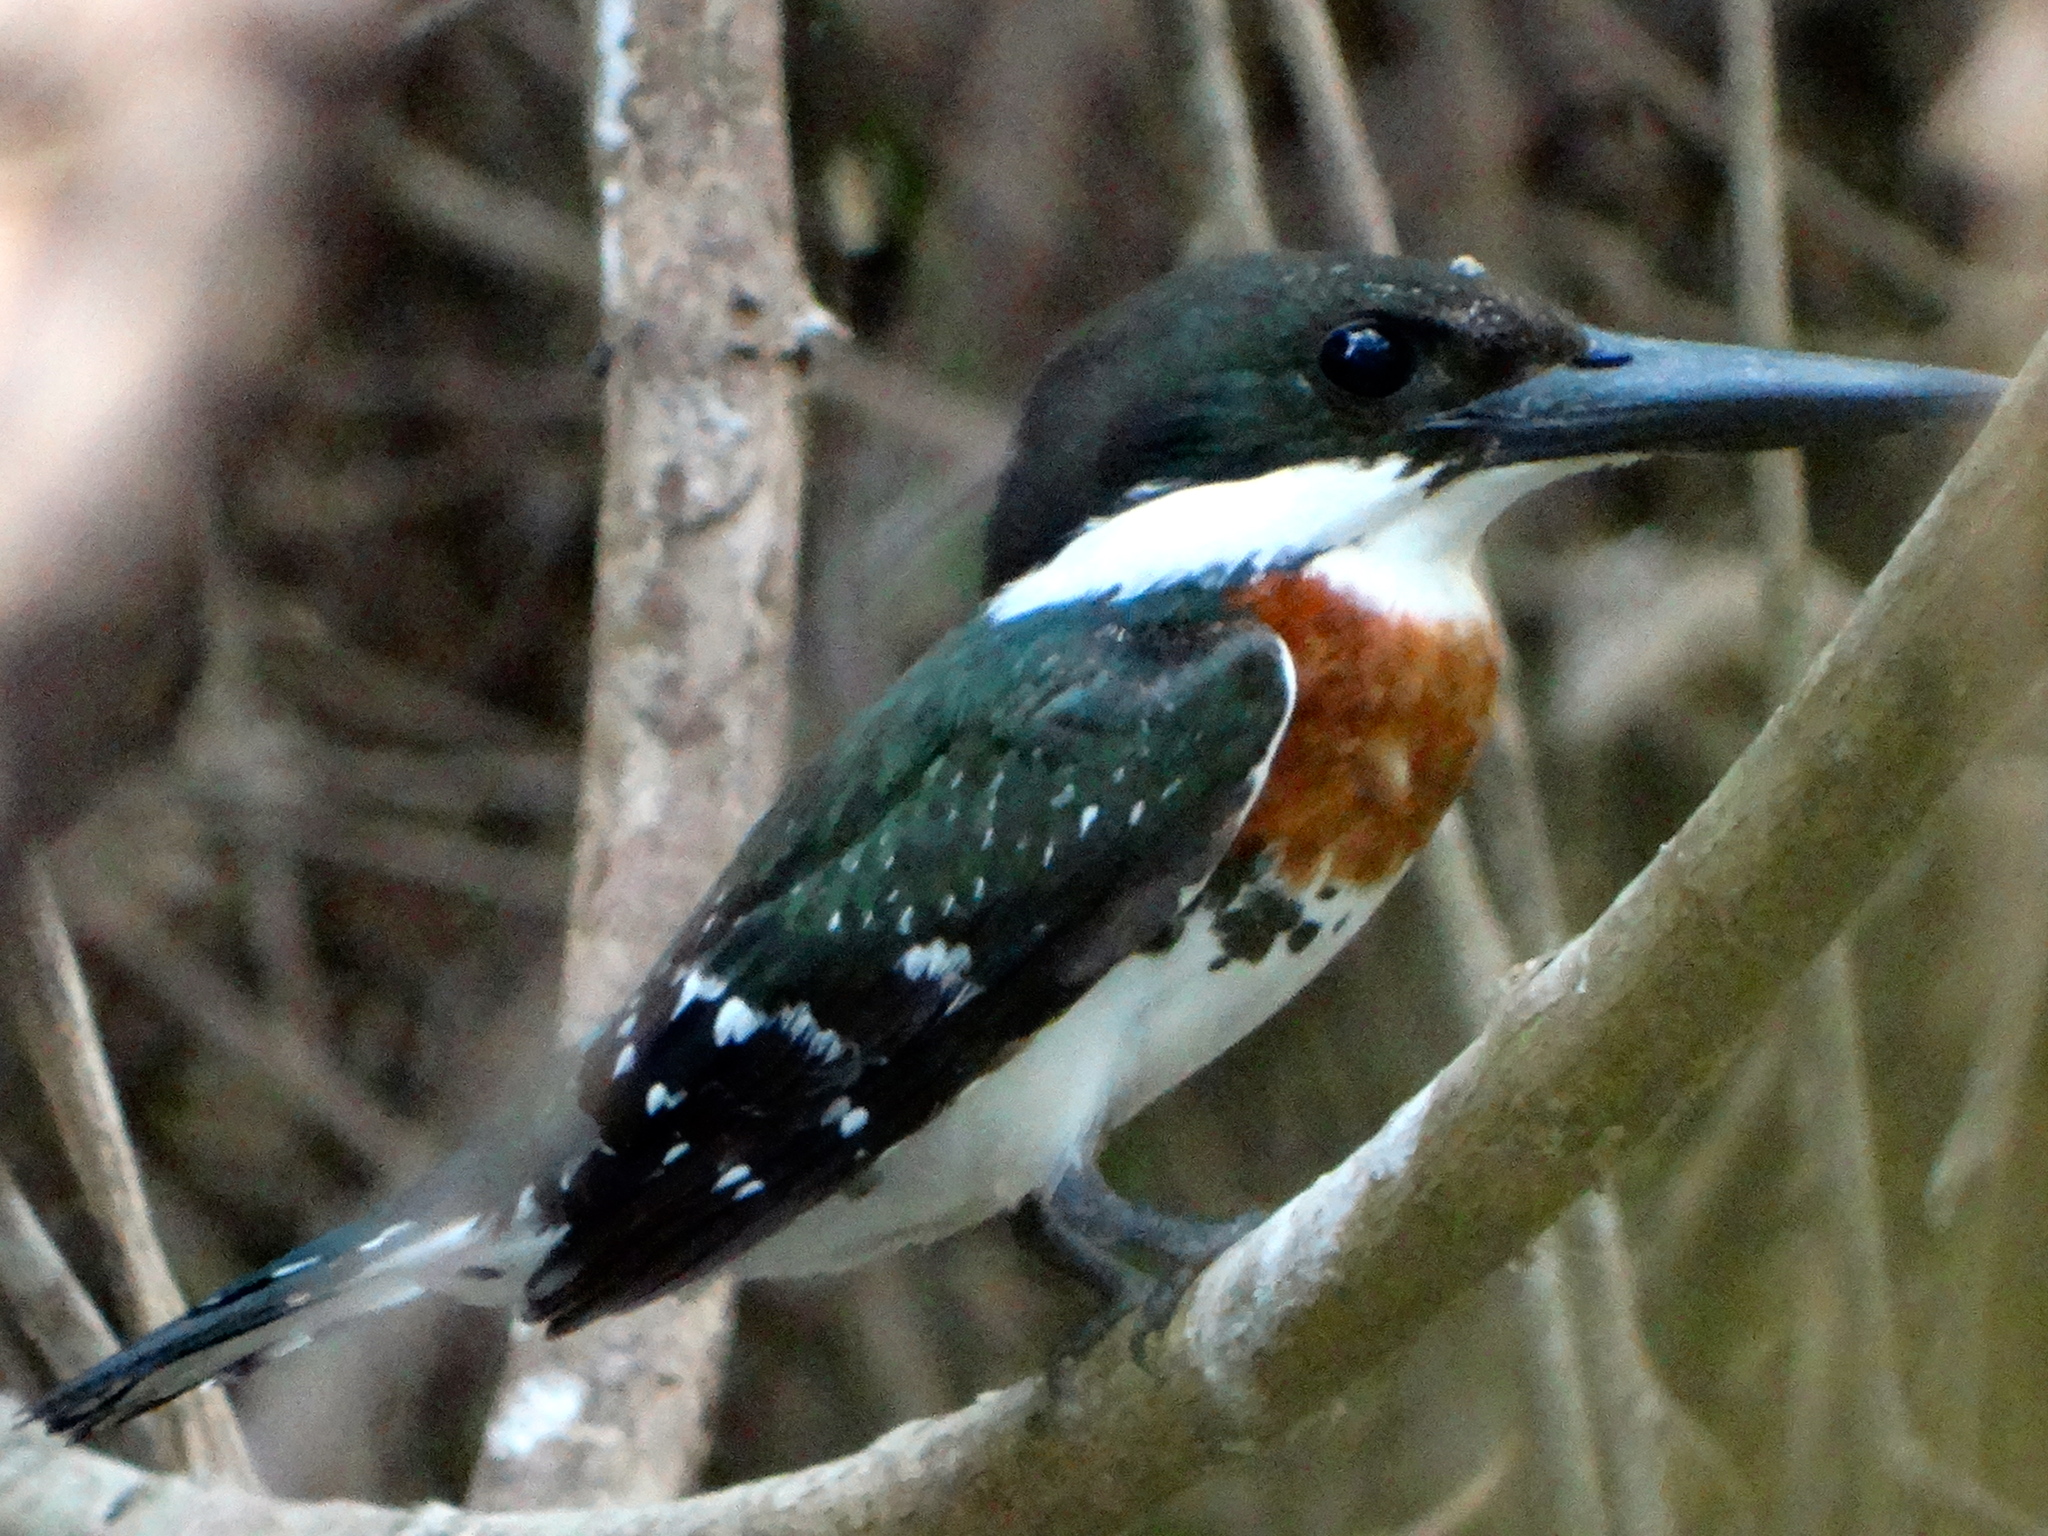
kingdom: Animalia
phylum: Chordata
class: Aves
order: Coraciiformes
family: Alcedinidae
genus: Chloroceryle
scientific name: Chloroceryle americana
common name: Green kingfisher
